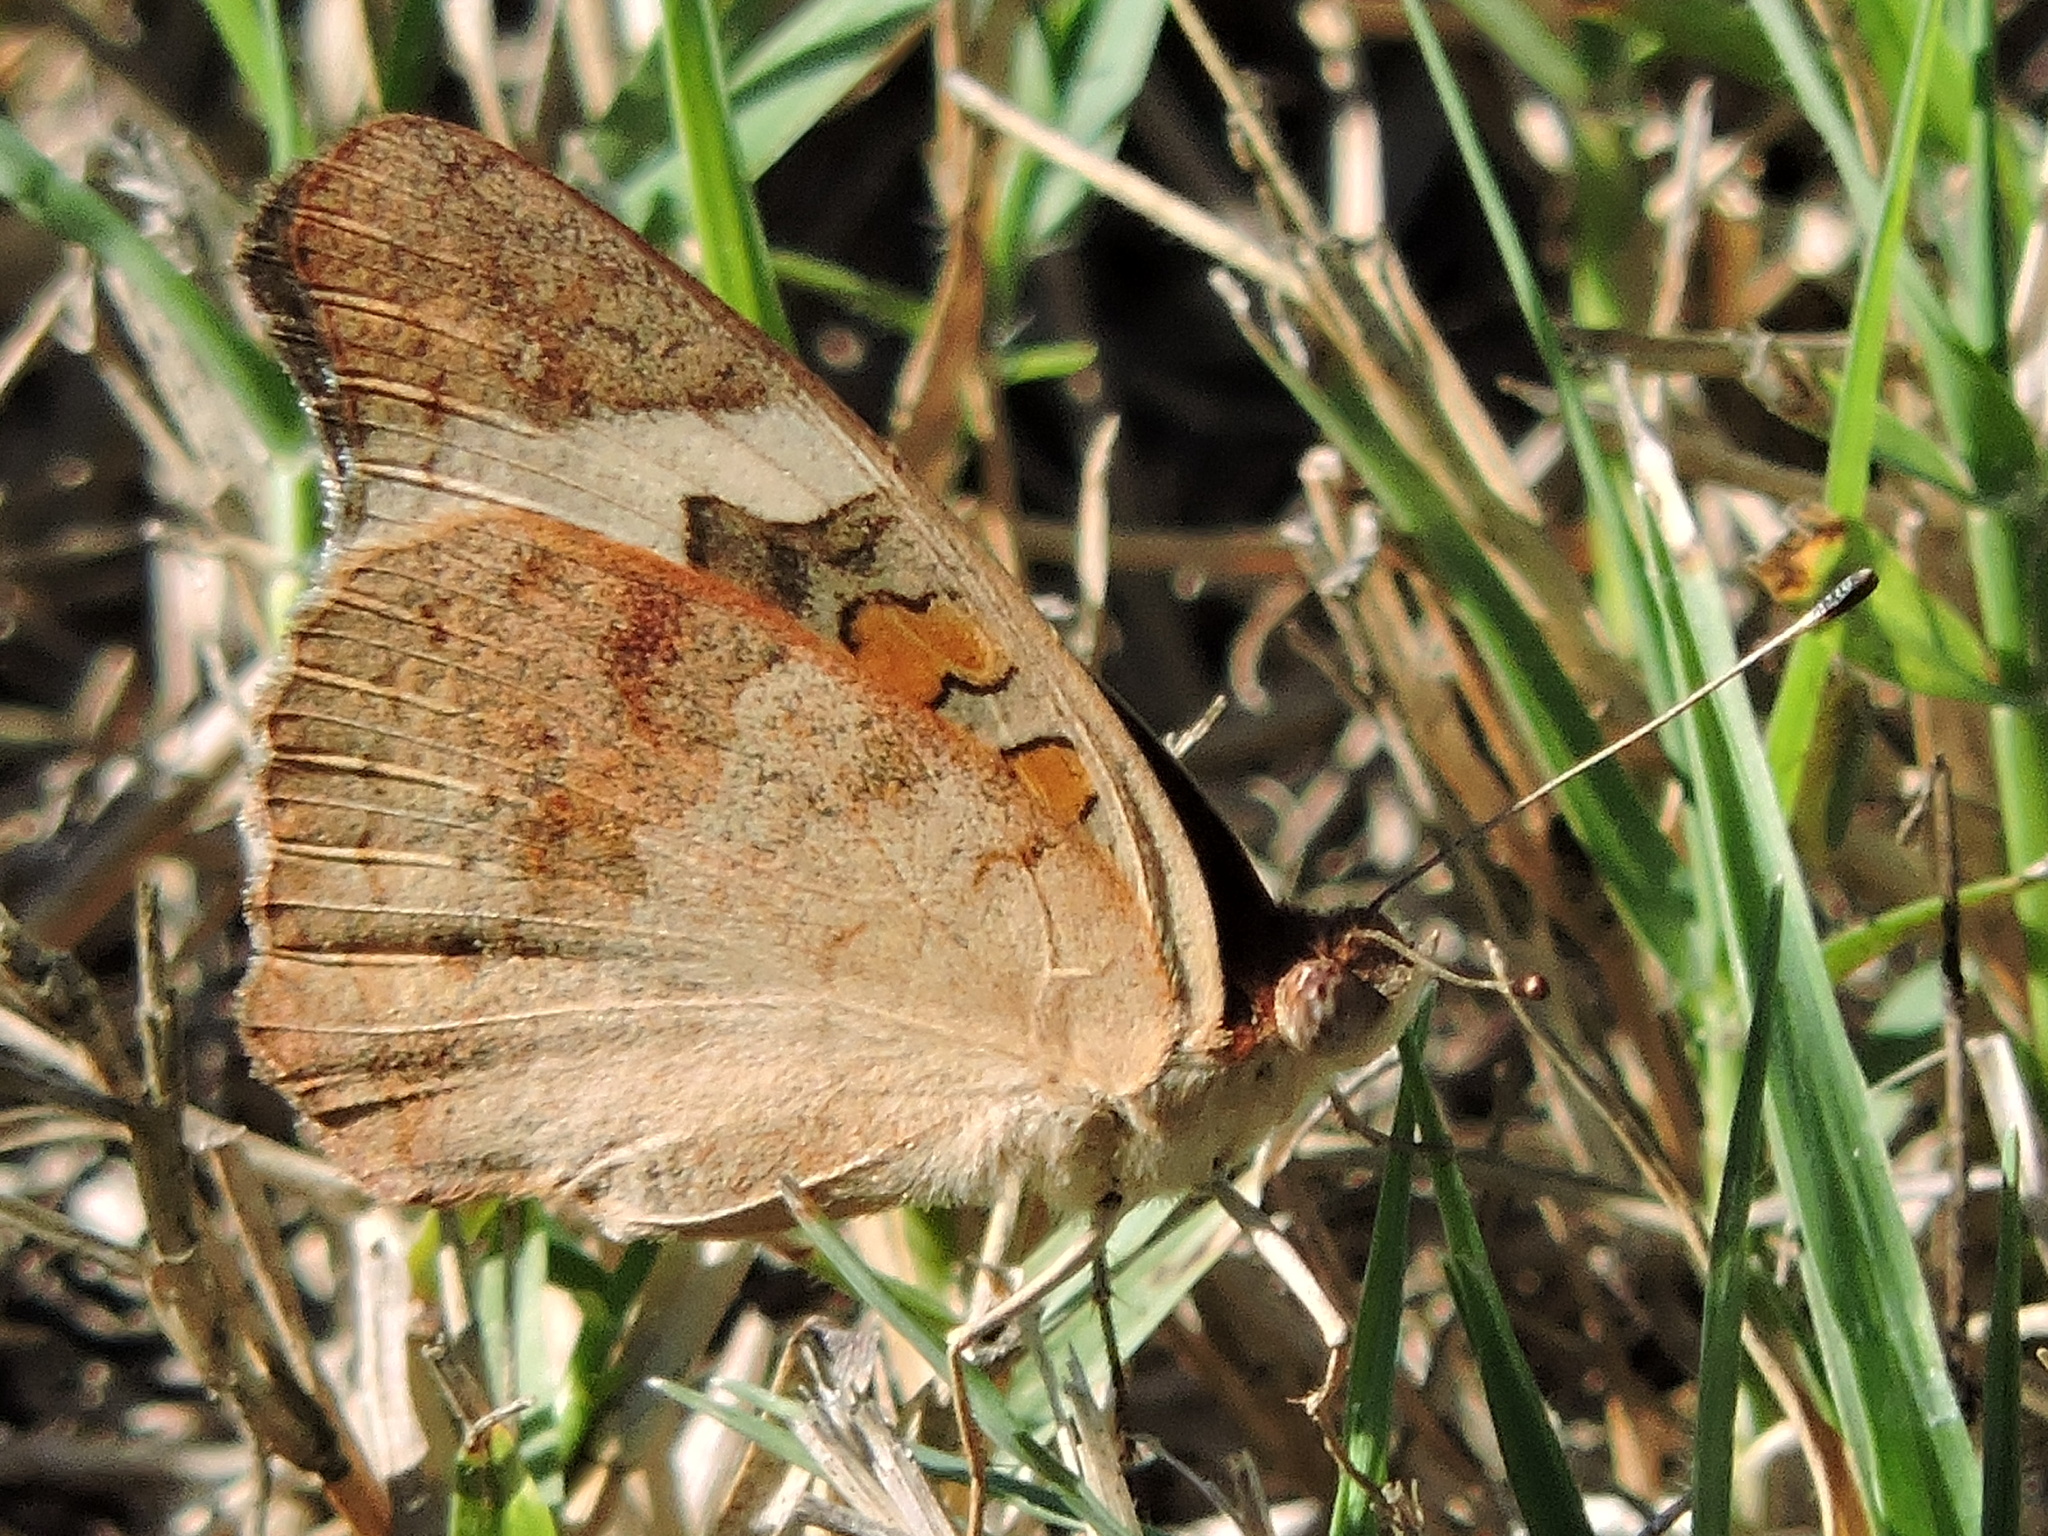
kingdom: Animalia
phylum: Arthropoda
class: Insecta
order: Lepidoptera
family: Nymphalidae
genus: Junonia
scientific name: Junonia coenia
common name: Common buckeye
